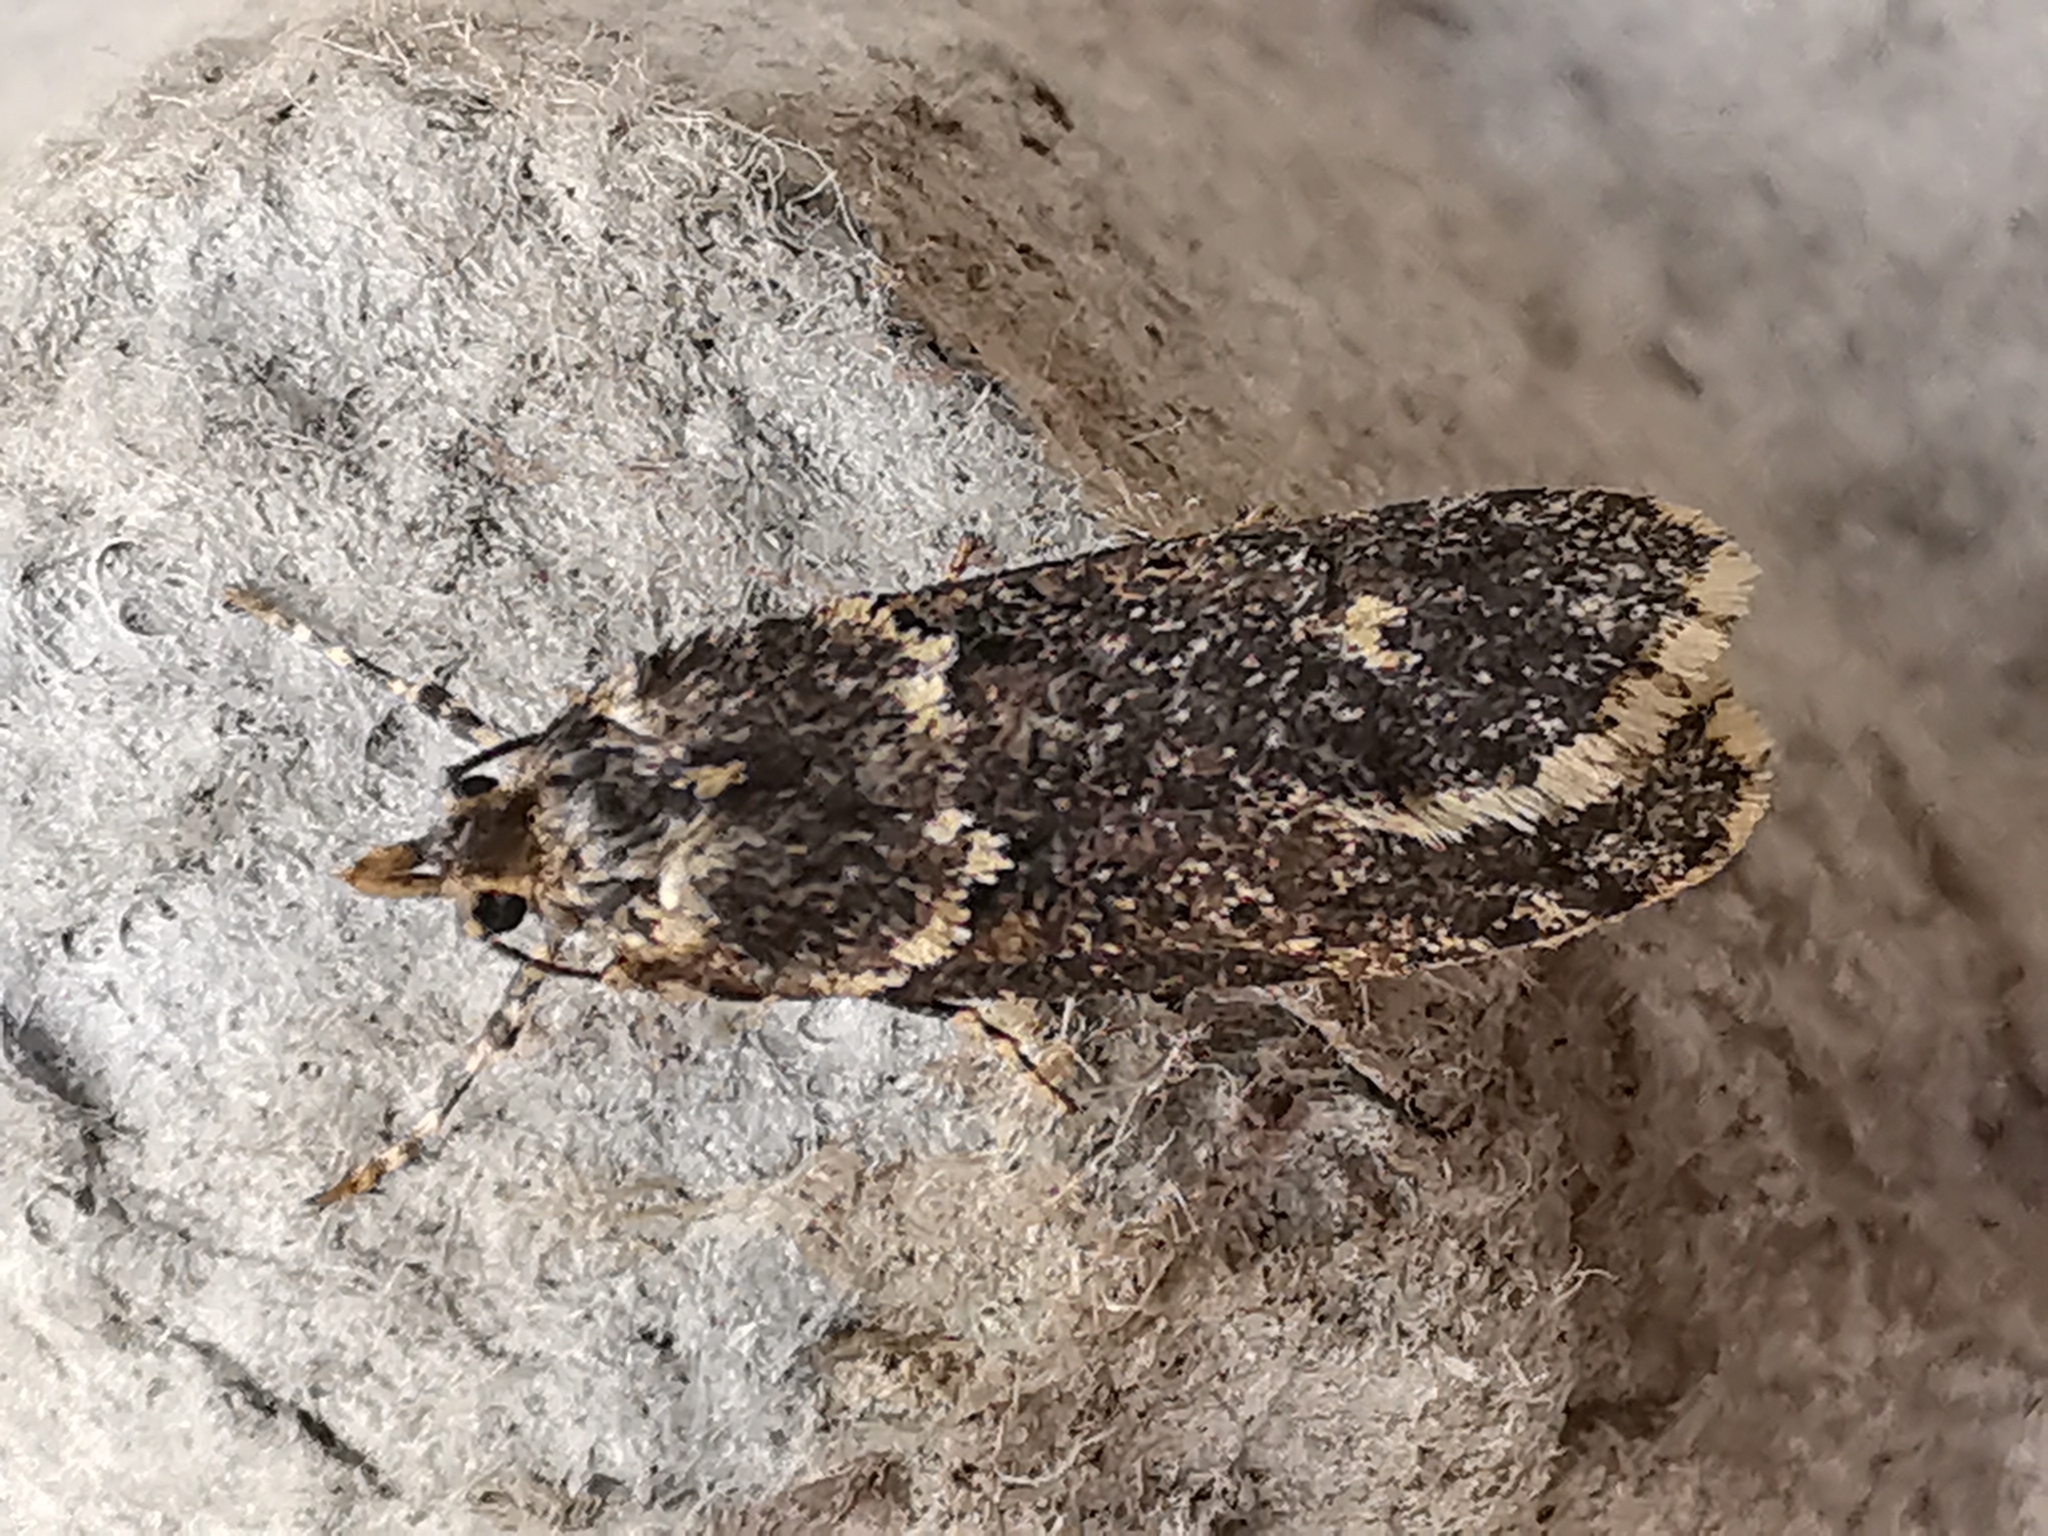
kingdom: Animalia
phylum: Arthropoda
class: Insecta
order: Lepidoptera
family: Lypusidae
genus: Diurnea
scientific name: Diurnea fagella
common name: March tubic
